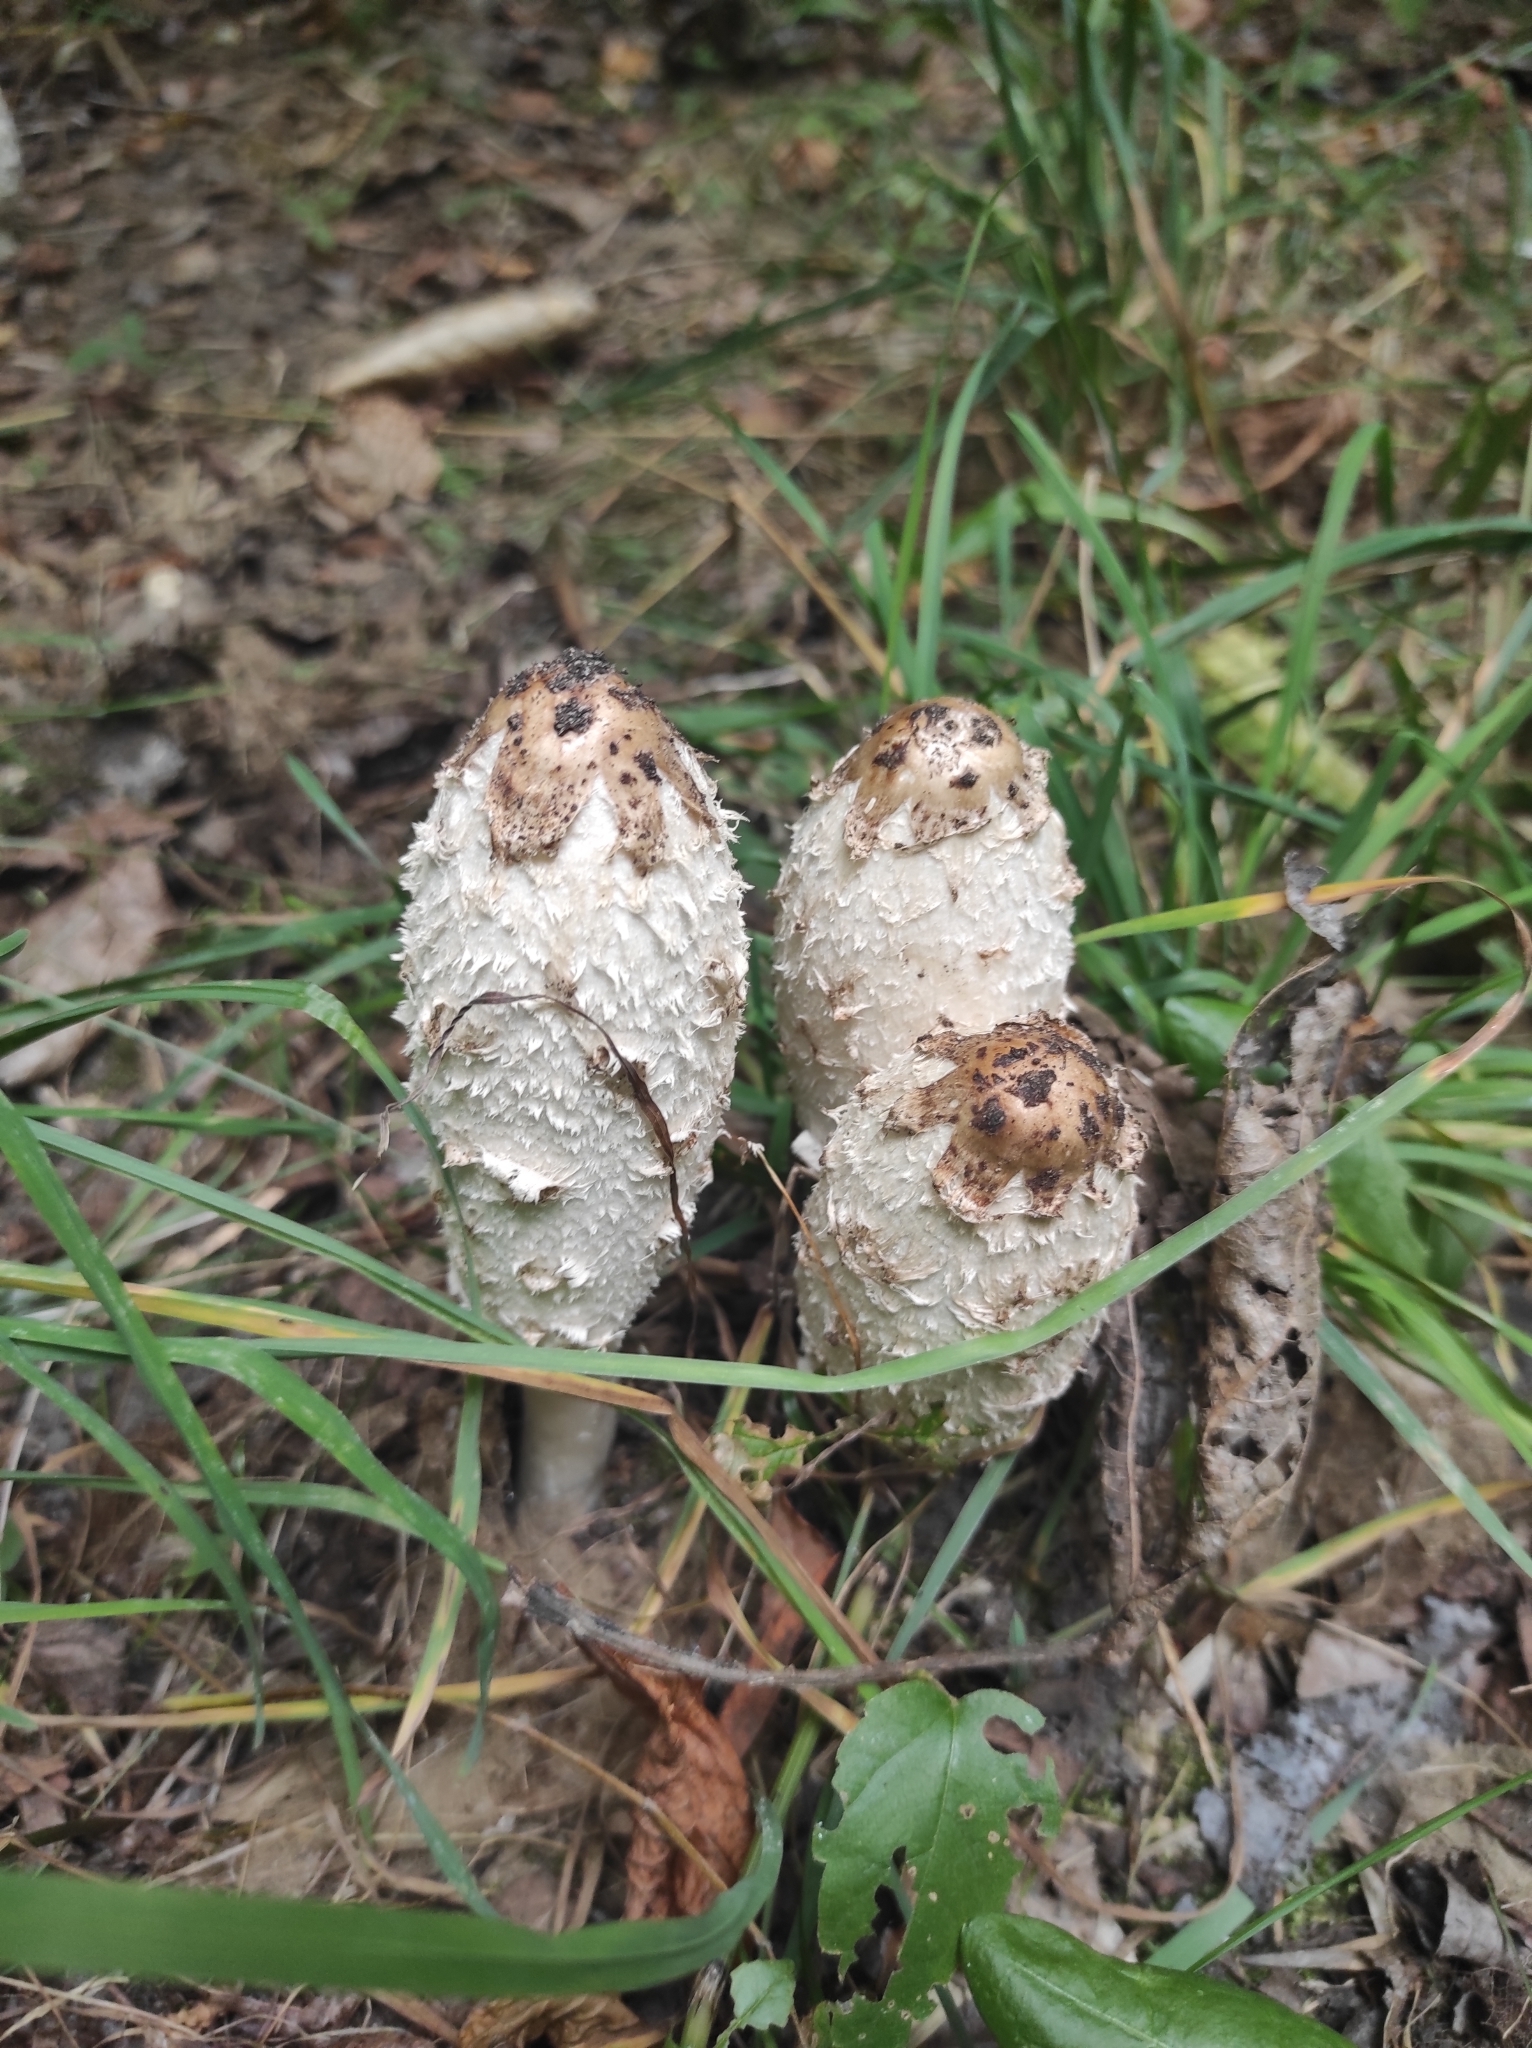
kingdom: Fungi
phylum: Basidiomycota
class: Agaricomycetes
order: Agaricales
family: Agaricaceae
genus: Coprinus
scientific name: Coprinus comatus
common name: Lawyer's wig
